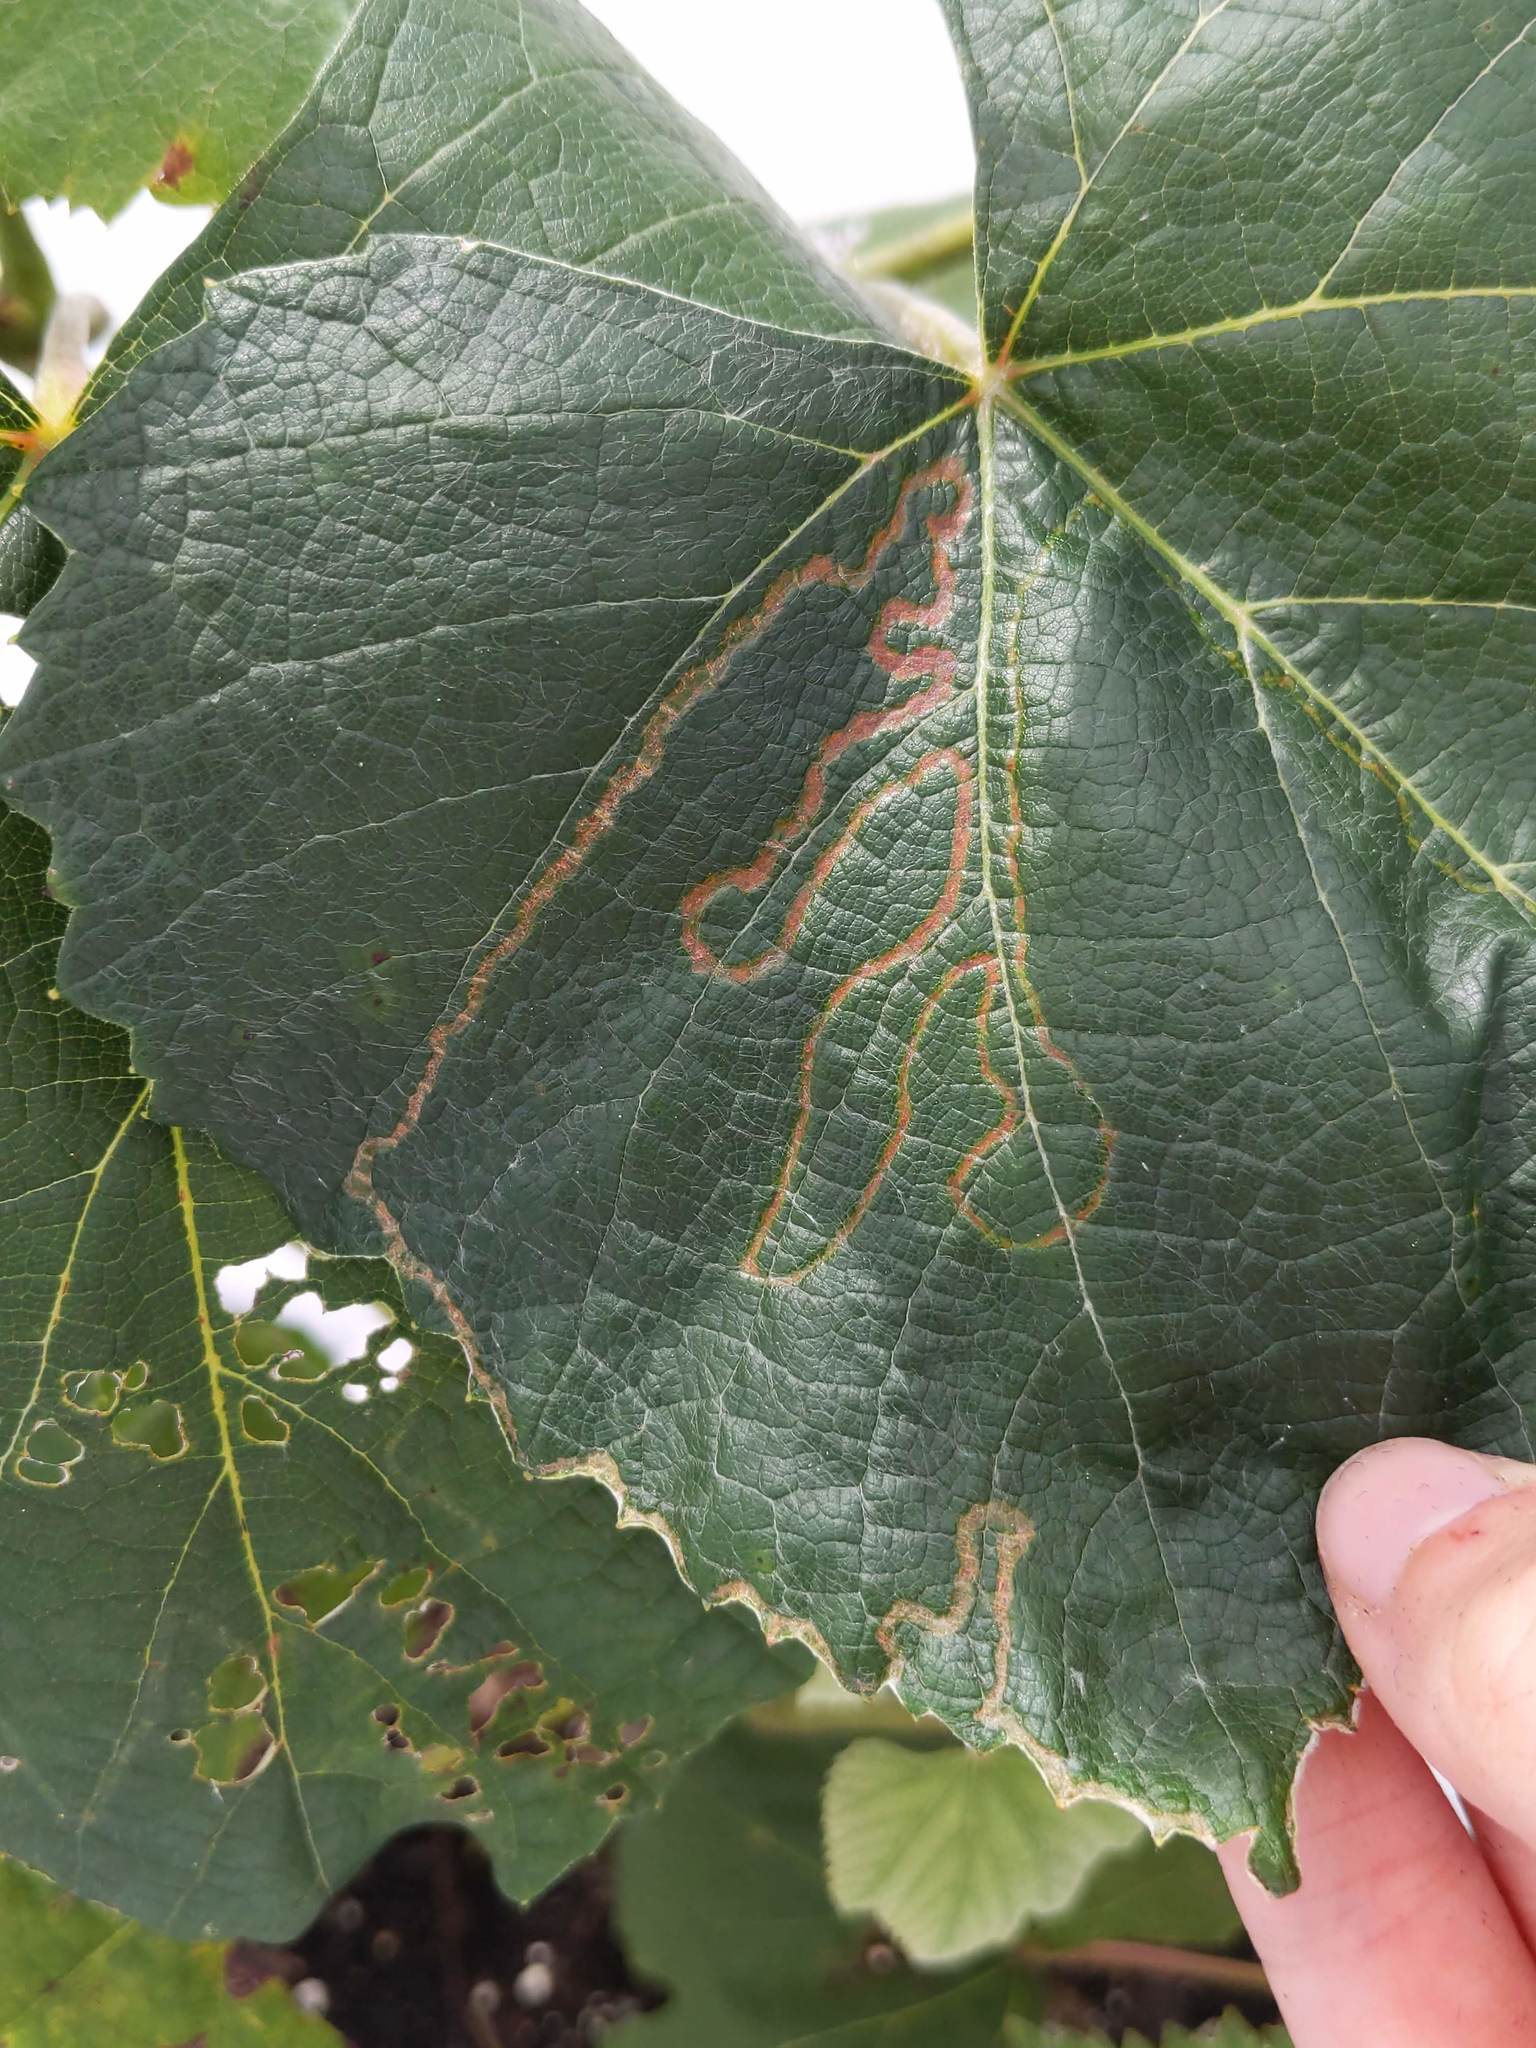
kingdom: Animalia
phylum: Arthropoda
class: Insecta
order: Lepidoptera
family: Gracillariidae
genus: Phyllocnistis
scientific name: Phyllocnistis vitegenella
